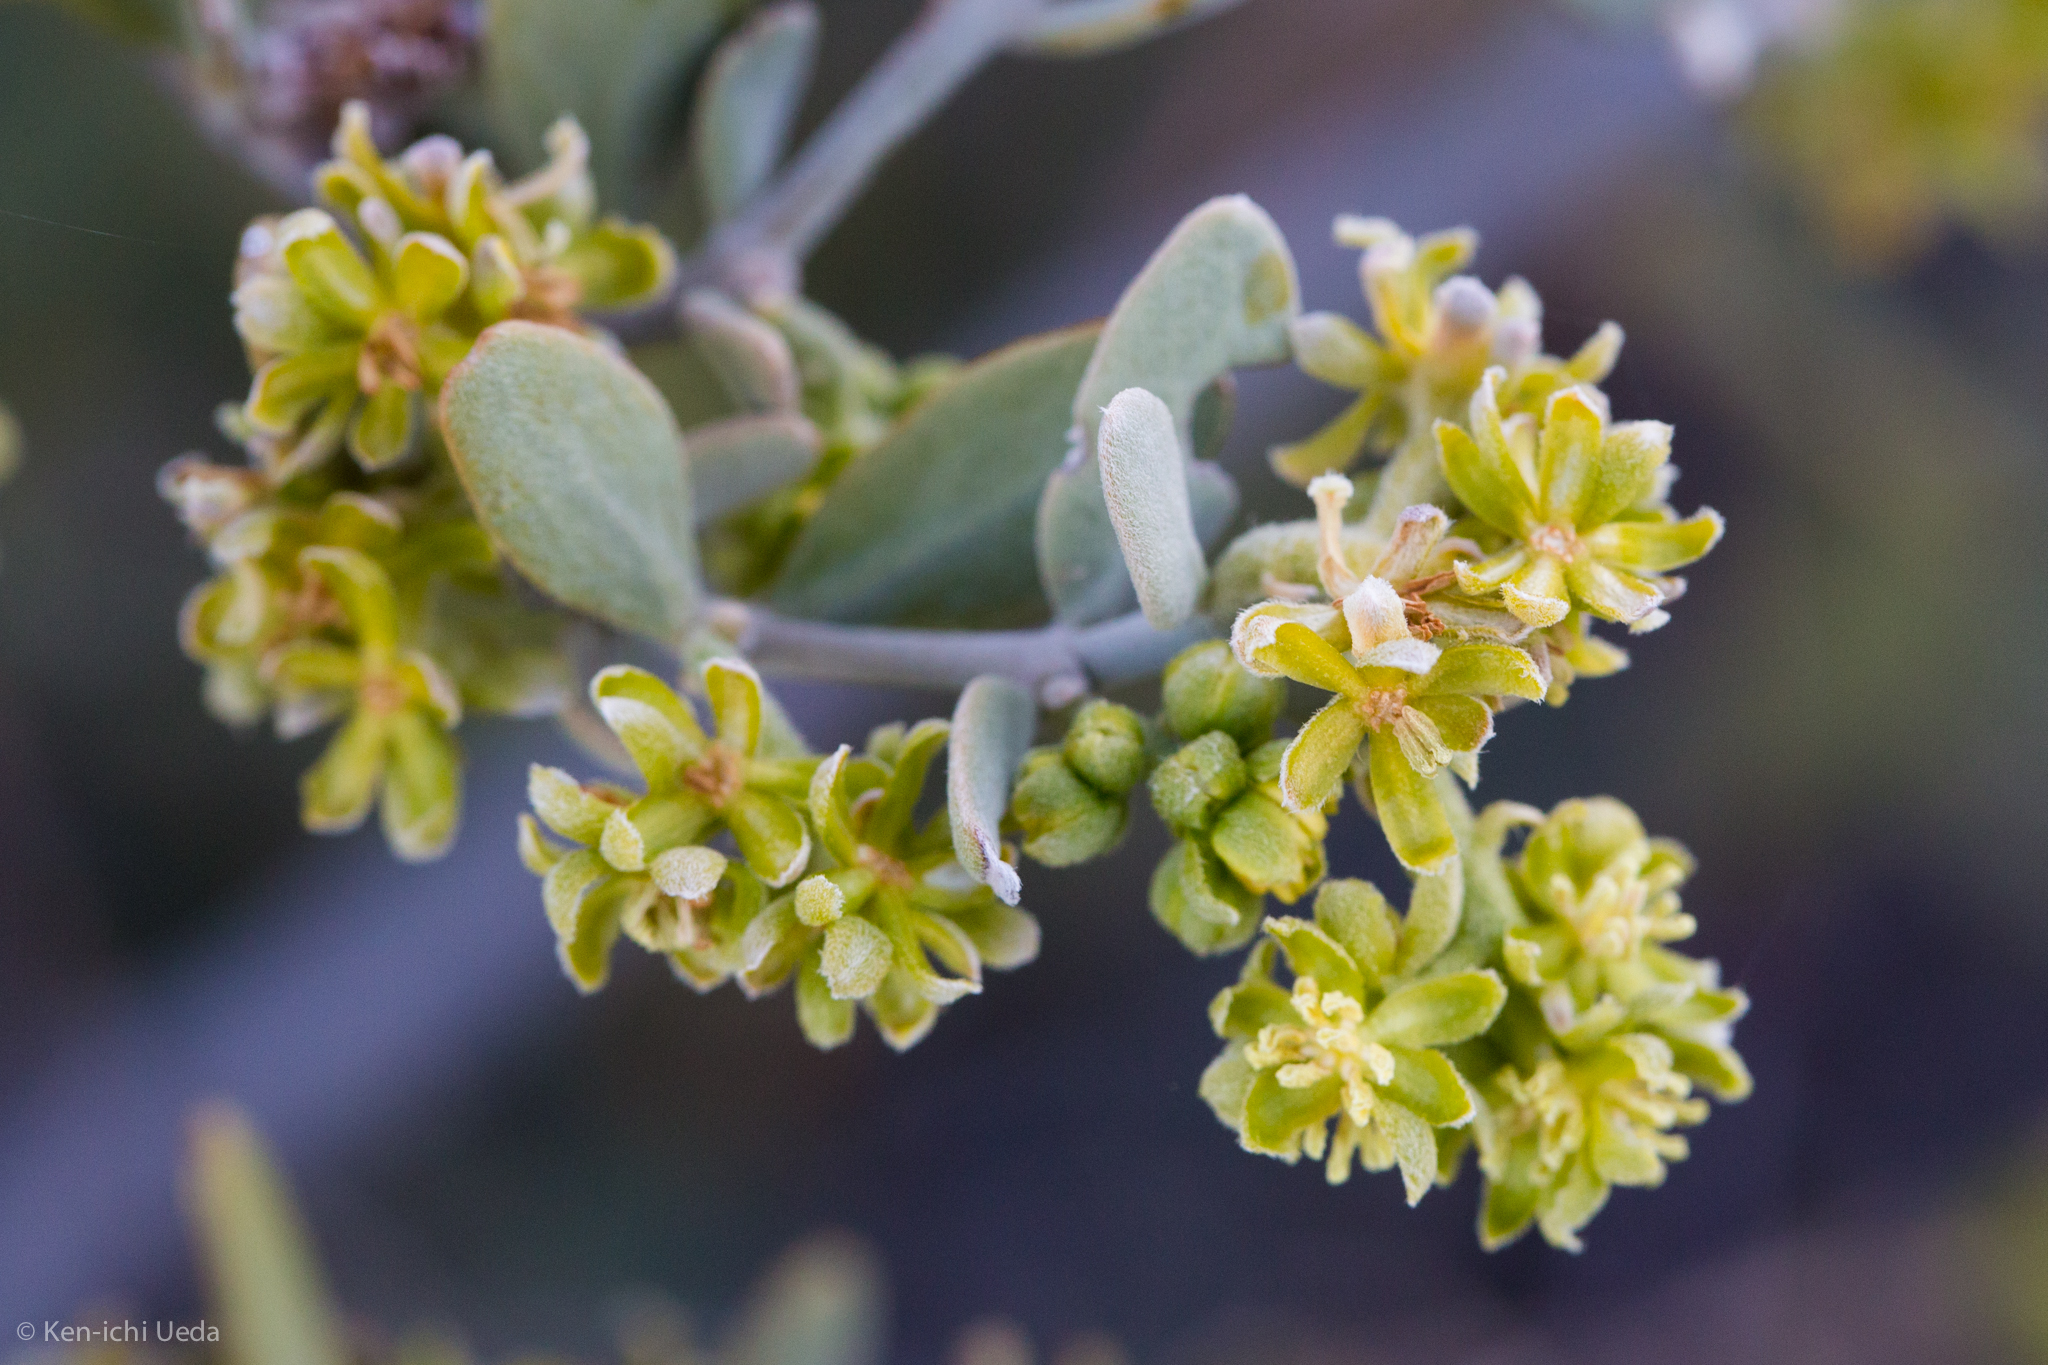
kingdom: Plantae
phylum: Tracheophyta
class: Magnoliopsida
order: Caryophyllales
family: Simmondsiaceae
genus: Simmondsia
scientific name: Simmondsia chinensis
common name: Jojoba
